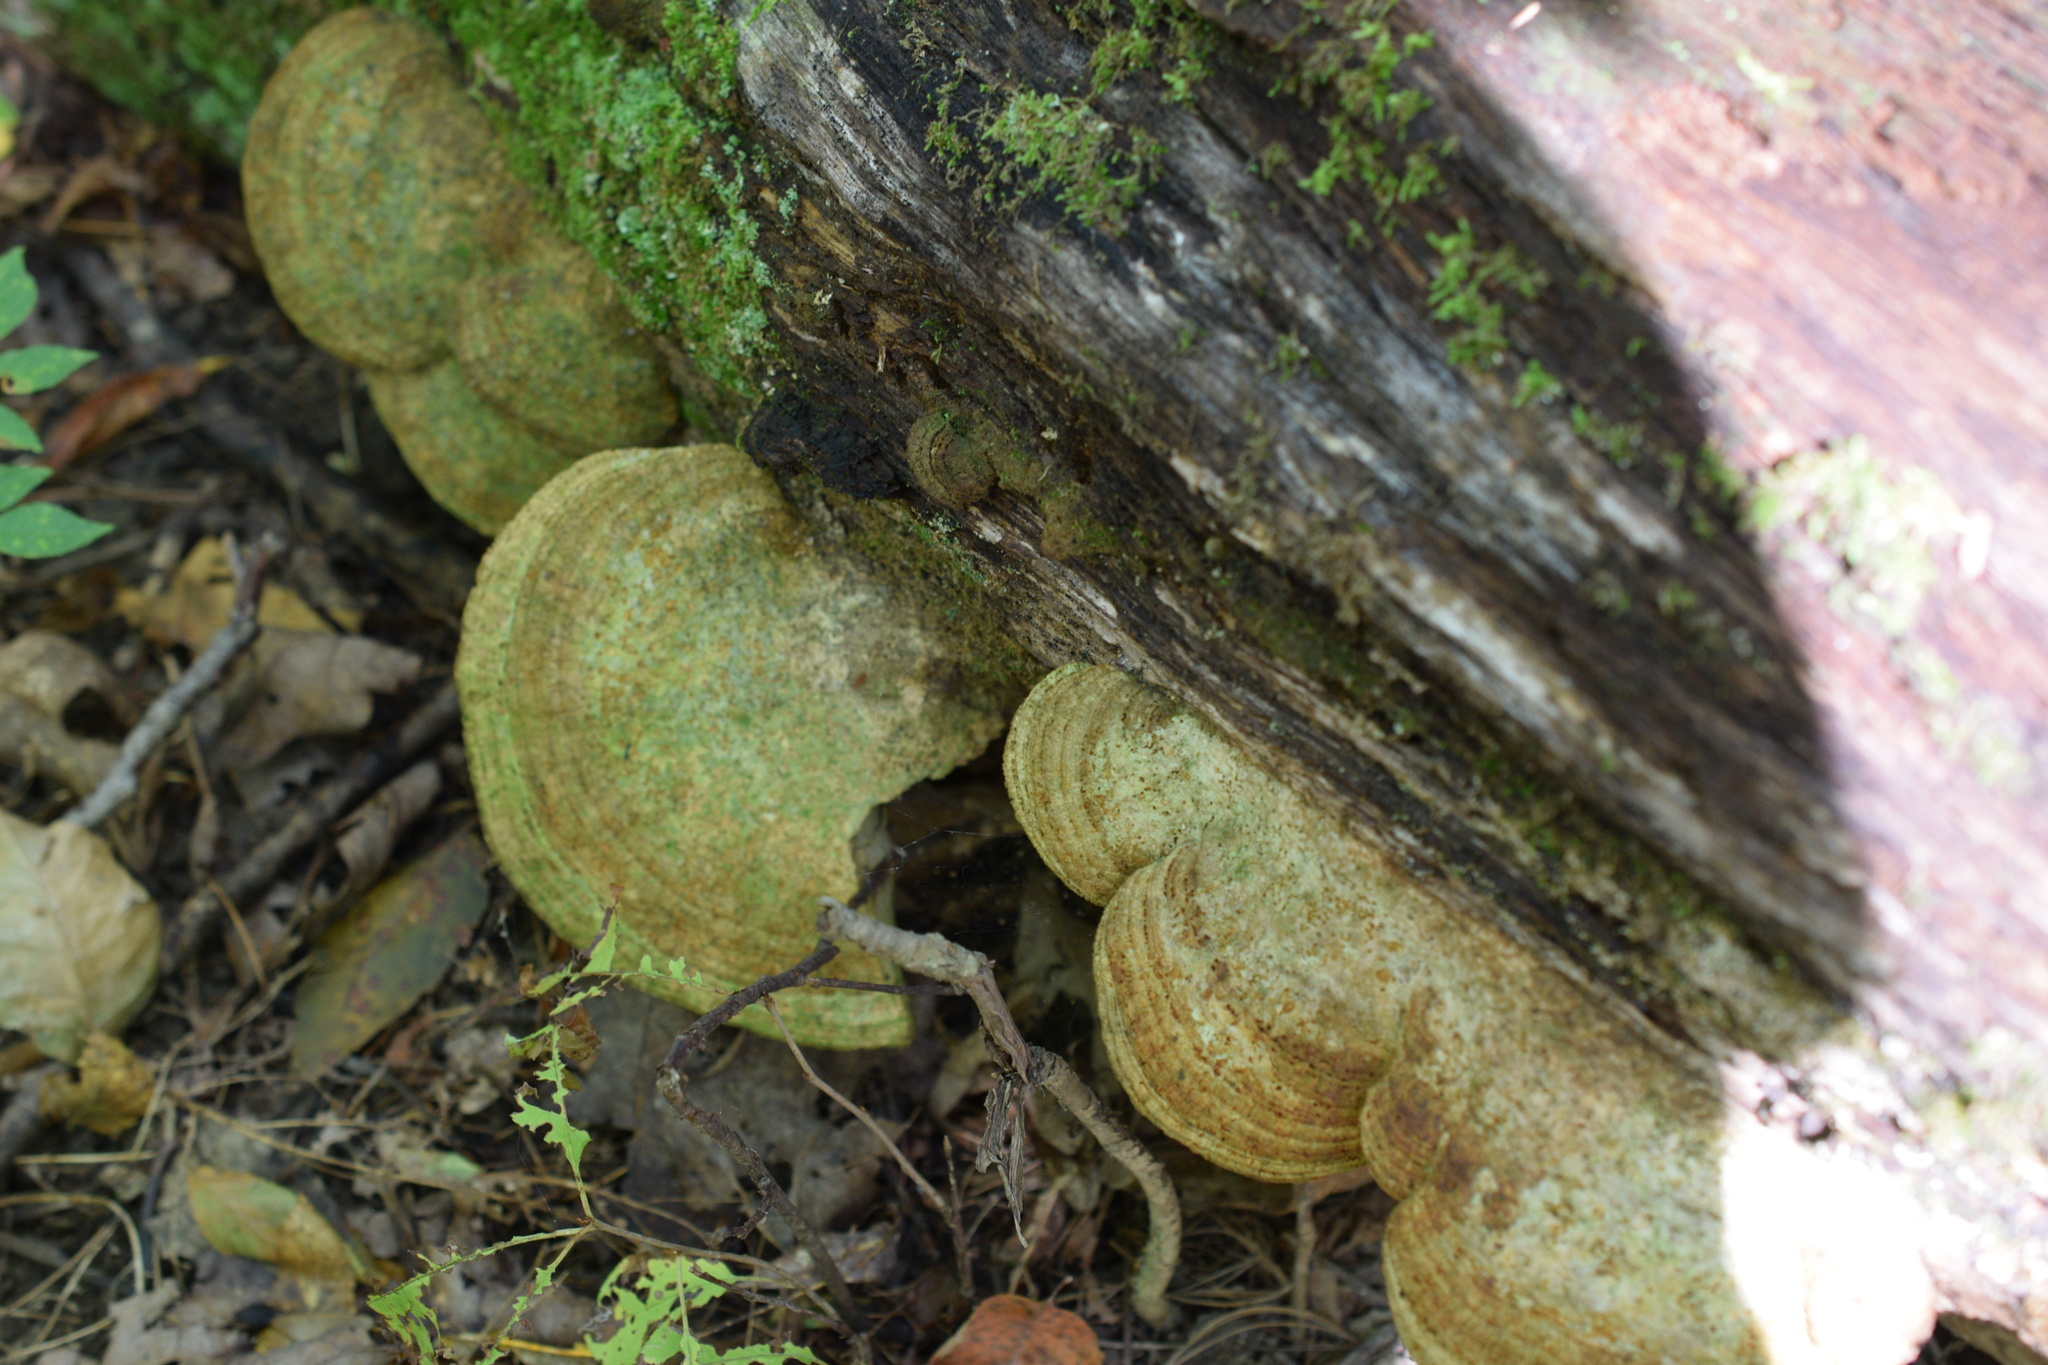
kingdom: Fungi
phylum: Basidiomycota
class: Agaricomycetes
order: Polyporales
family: Fomitopsidaceae
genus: Fomitopsis
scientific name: Fomitopsis
